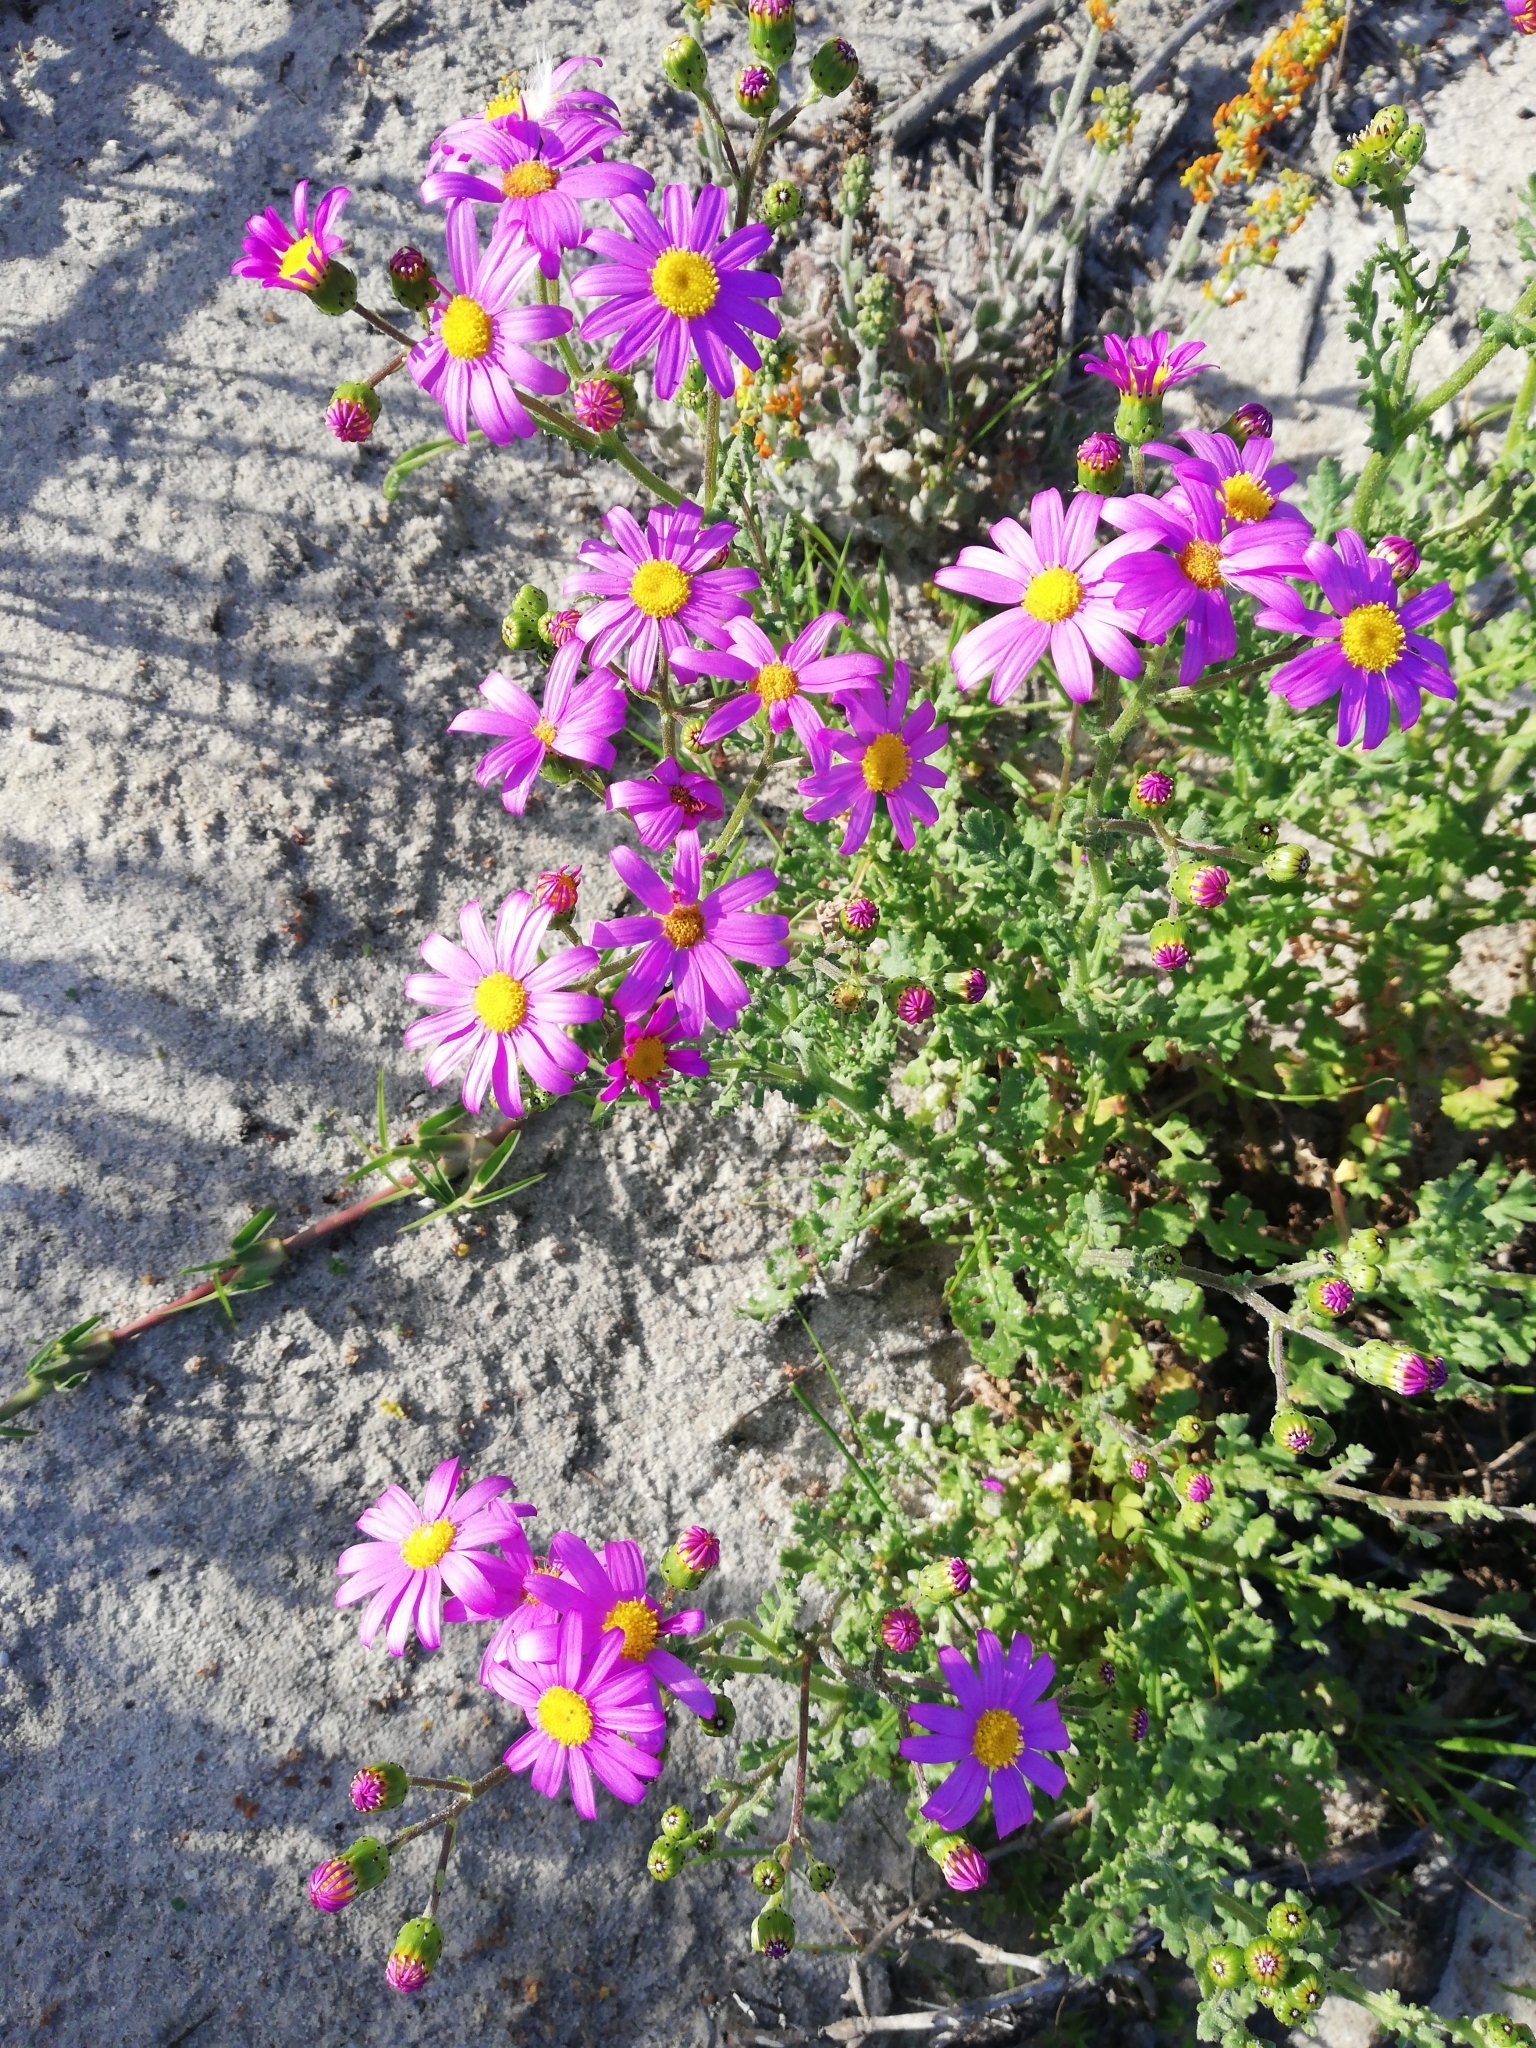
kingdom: Plantae
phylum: Tracheophyta
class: Magnoliopsida
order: Asterales
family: Asteraceae
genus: Senecio
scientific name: Senecio elegans
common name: Purple groundsel
